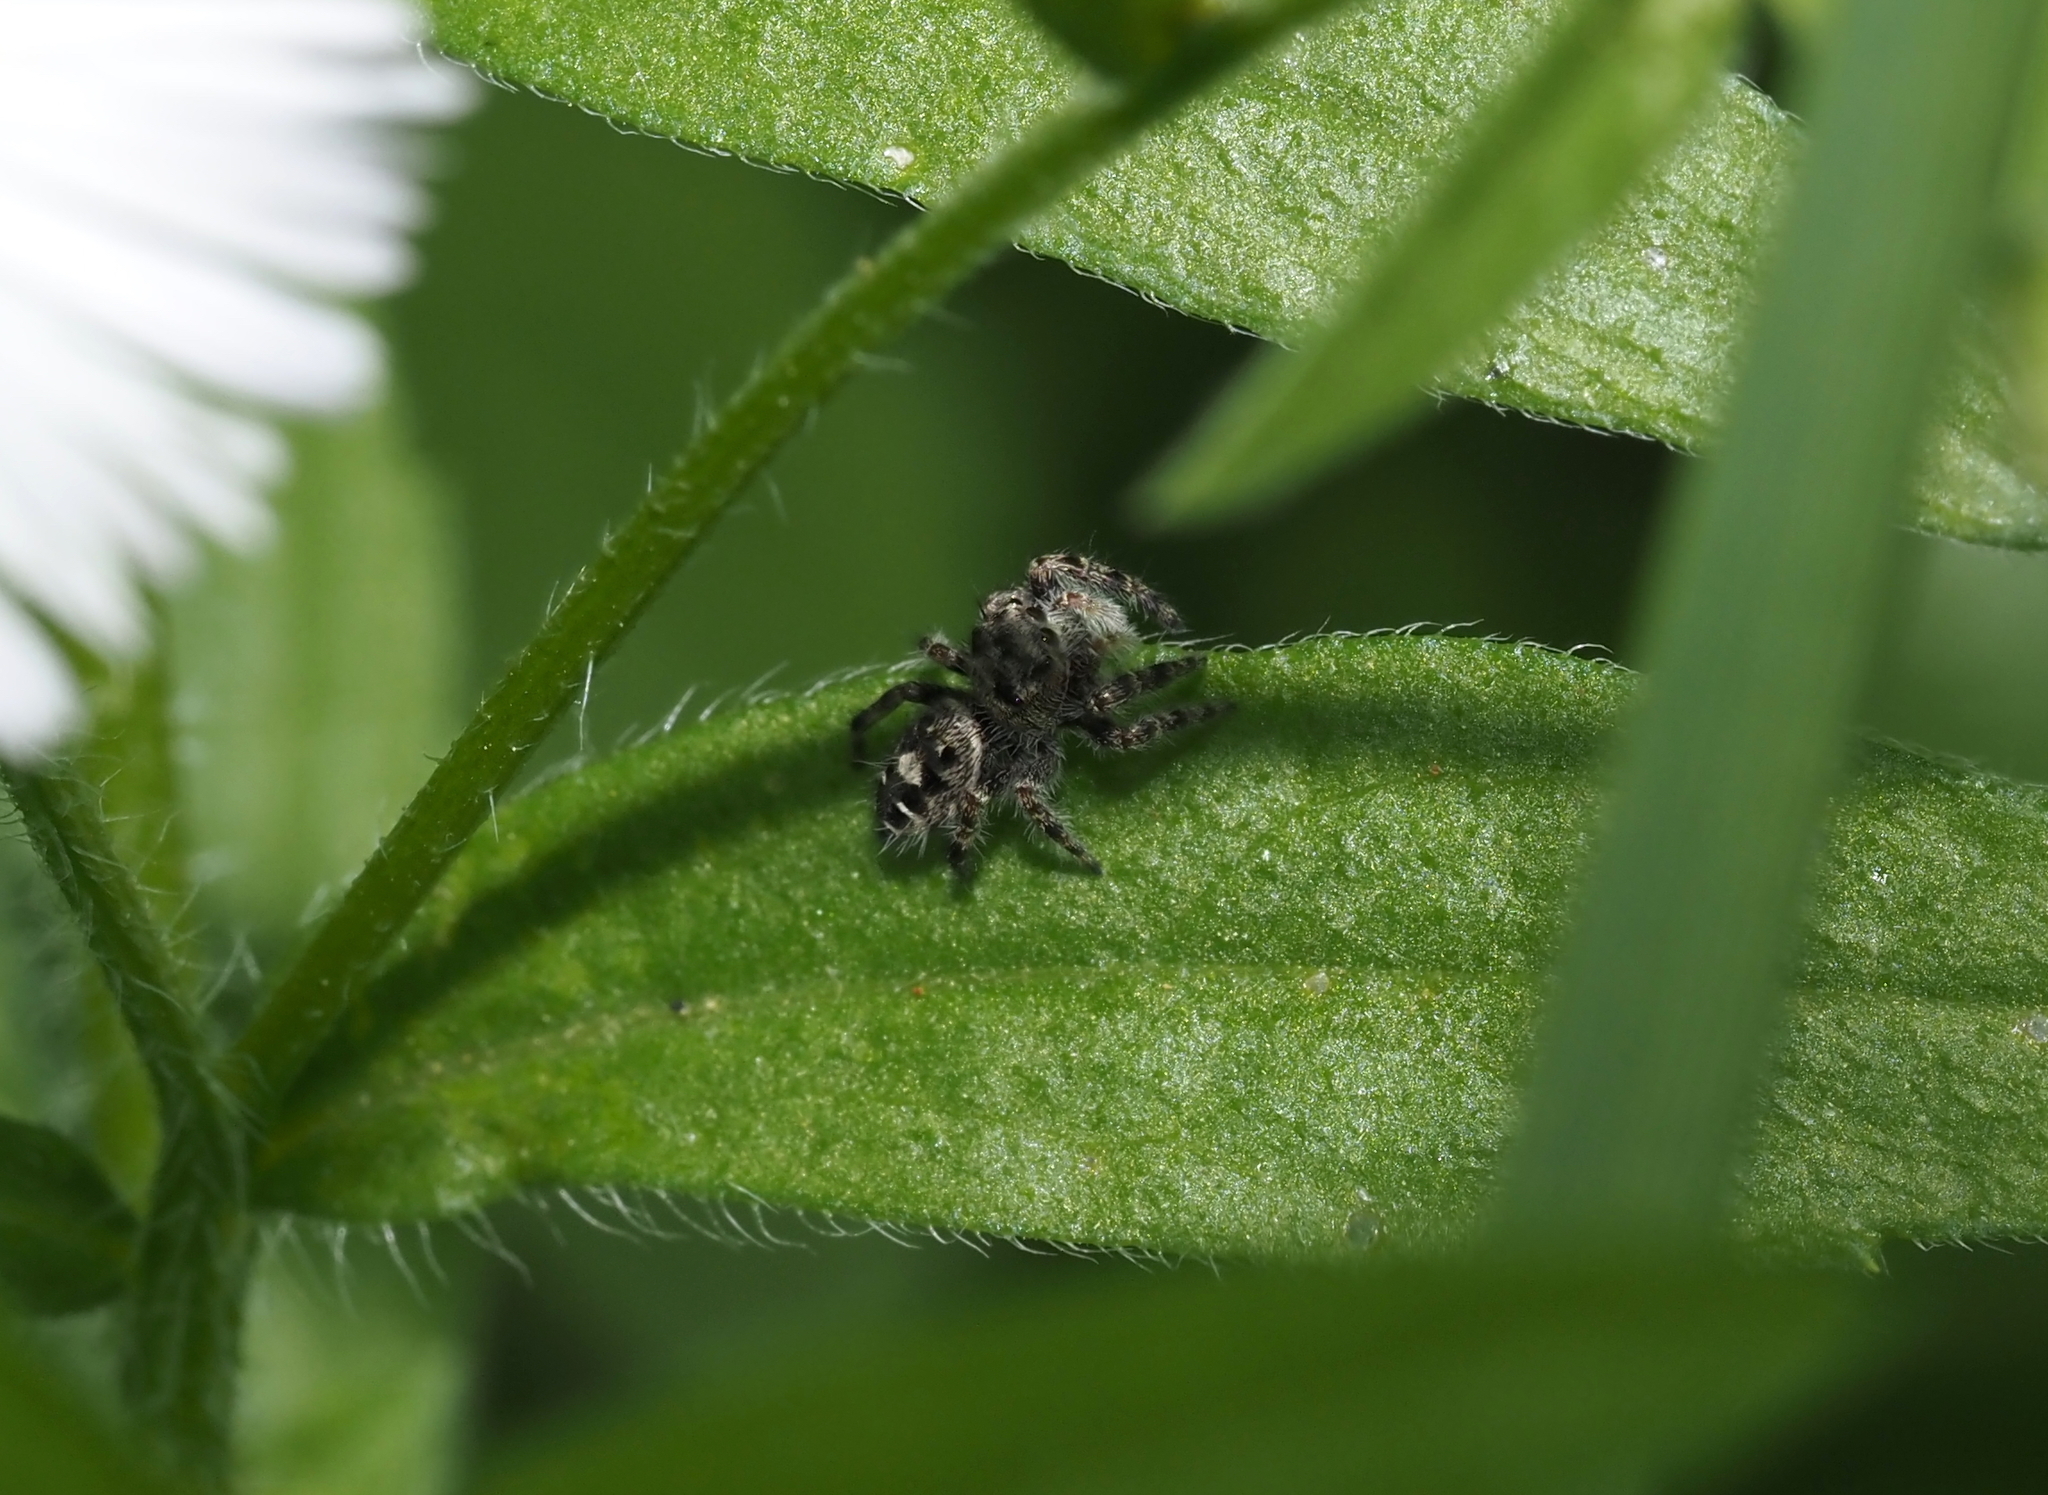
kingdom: Animalia
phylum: Arthropoda
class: Arachnida
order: Araneae
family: Salticidae
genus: Phidippus
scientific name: Phidippus putnami
